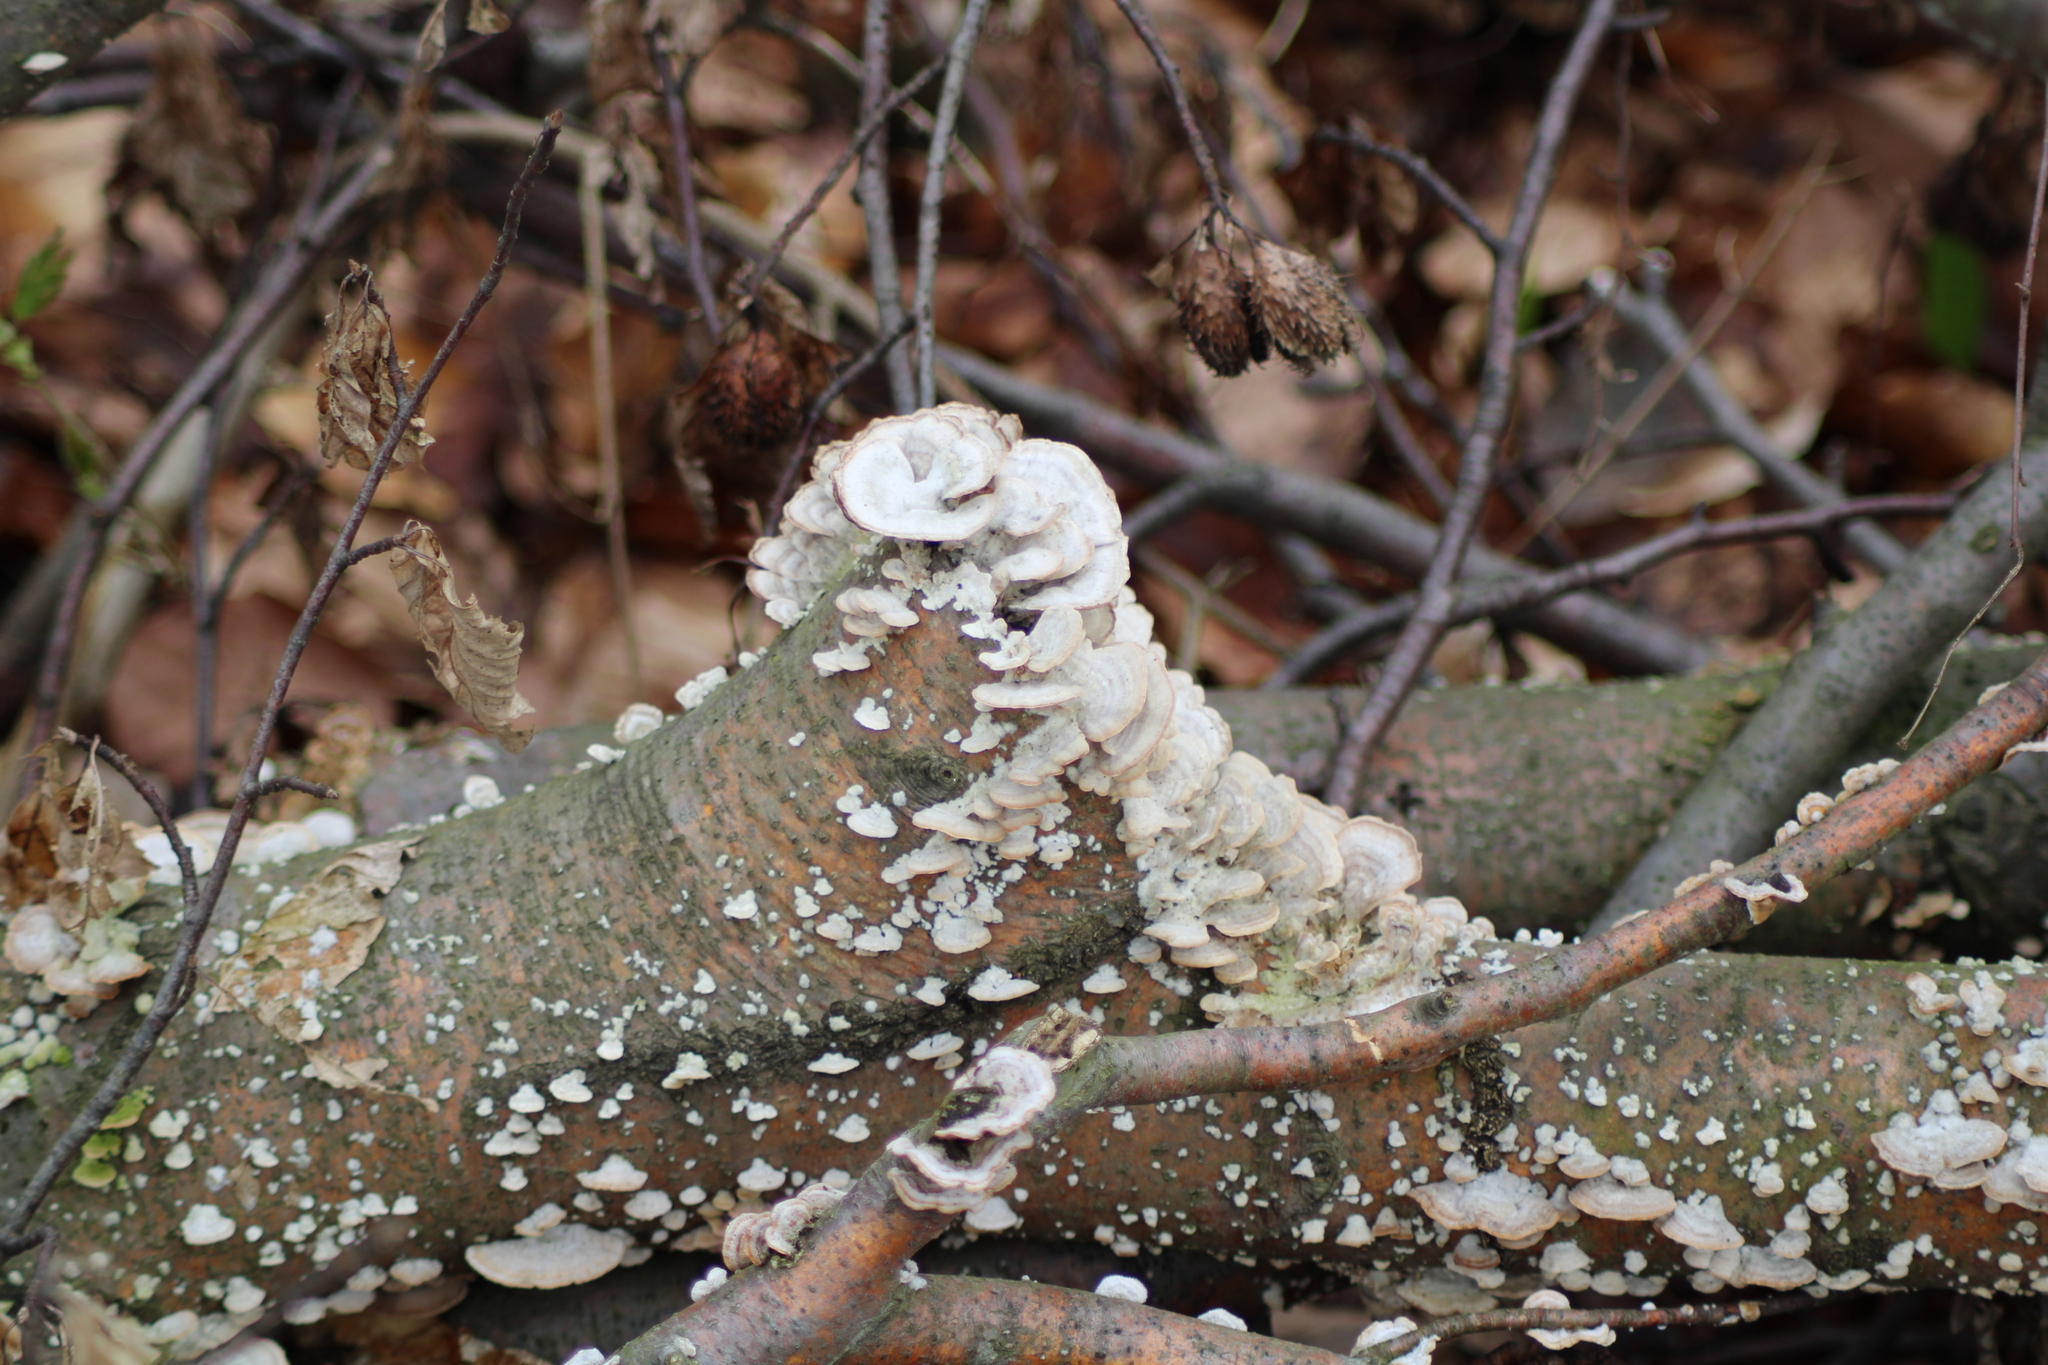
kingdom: Fungi
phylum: Basidiomycota
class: Agaricomycetes
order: Hymenochaetales
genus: Trichaptum
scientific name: Trichaptum biforme
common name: Violet-toothed polypore
